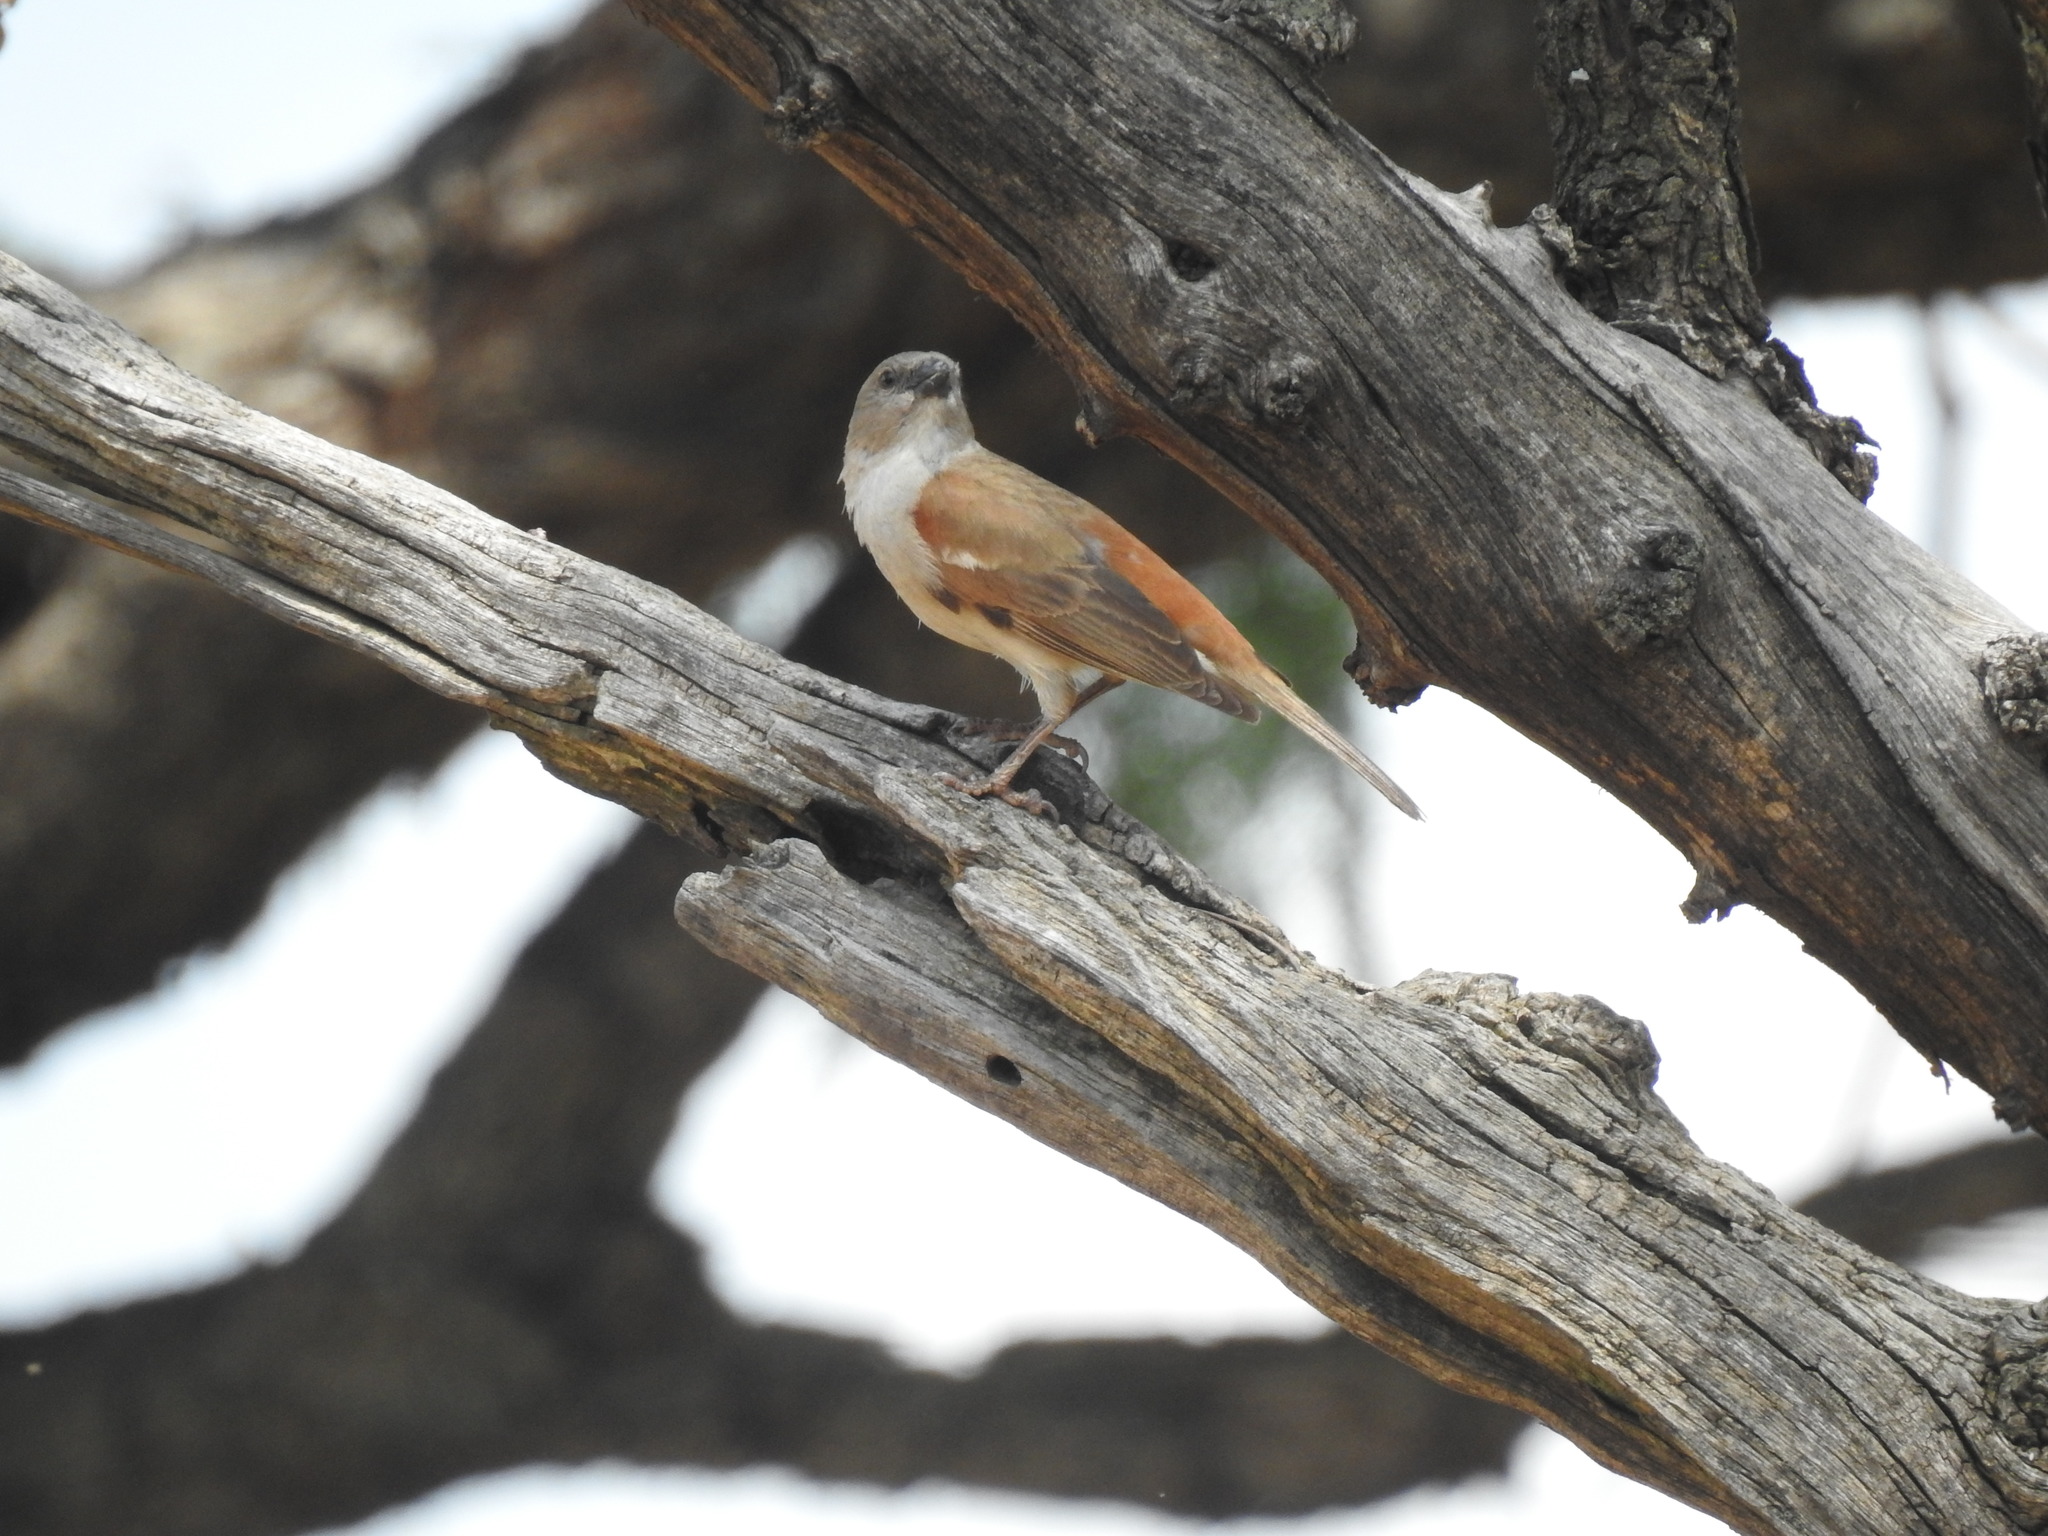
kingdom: Animalia
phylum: Chordata
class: Aves
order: Passeriformes
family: Passeridae
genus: Passer
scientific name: Passer diffusus
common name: Southern grey-headed sparrow
